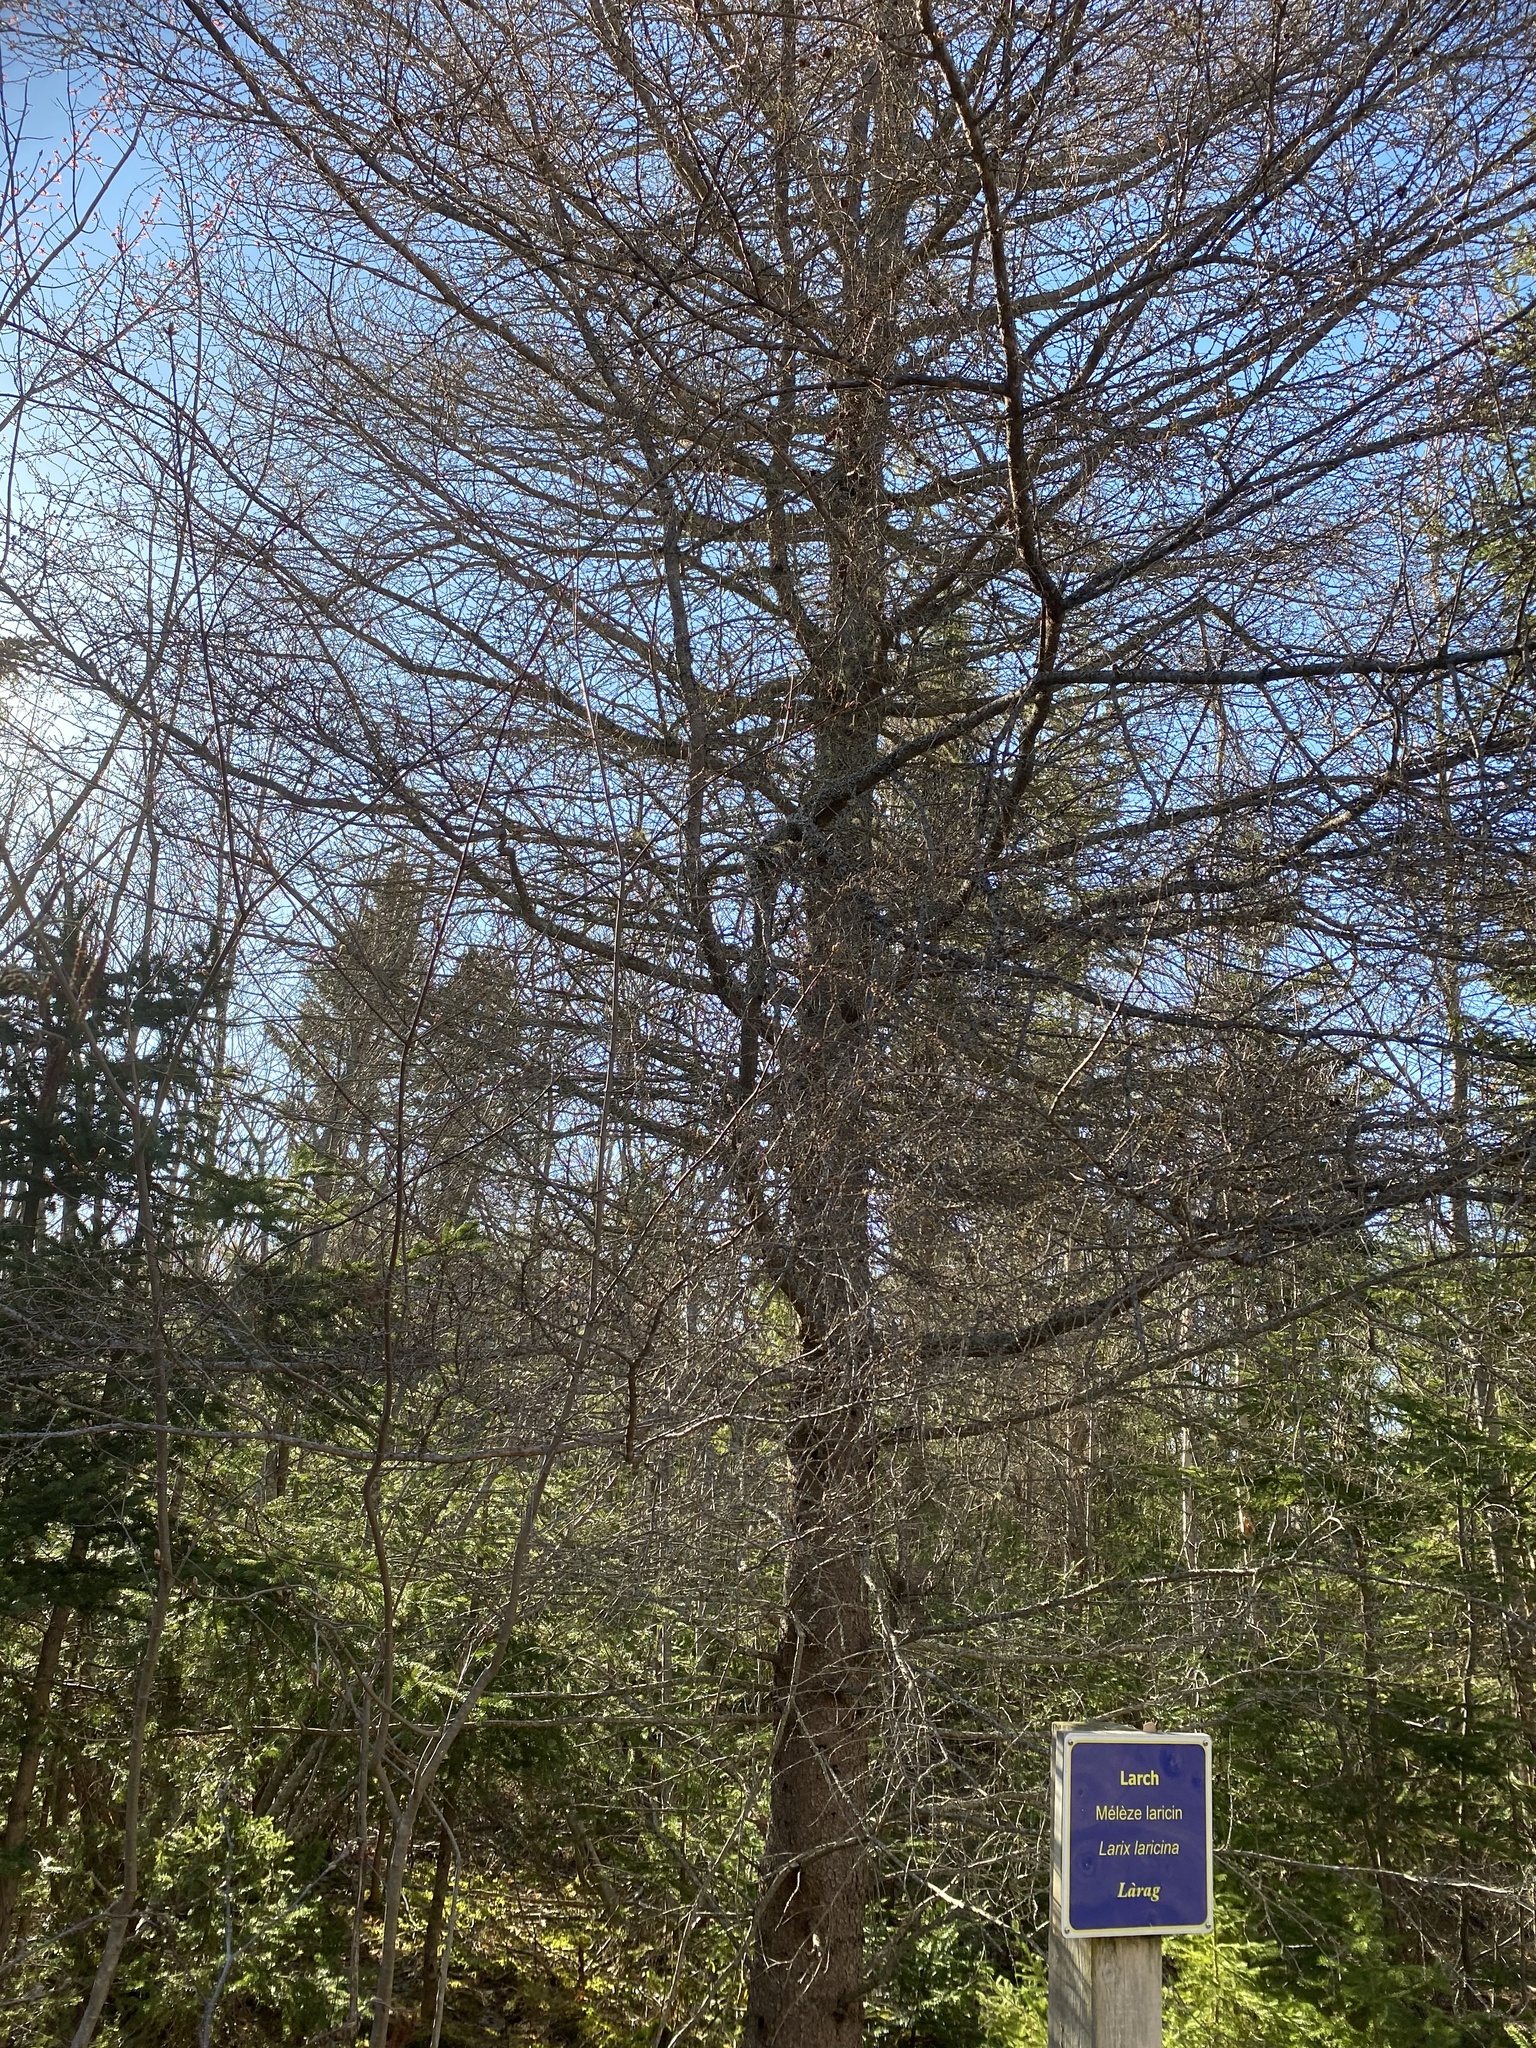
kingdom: Plantae
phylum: Tracheophyta
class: Pinopsida
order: Pinales
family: Pinaceae
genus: Larix
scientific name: Larix laricina
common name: American larch
